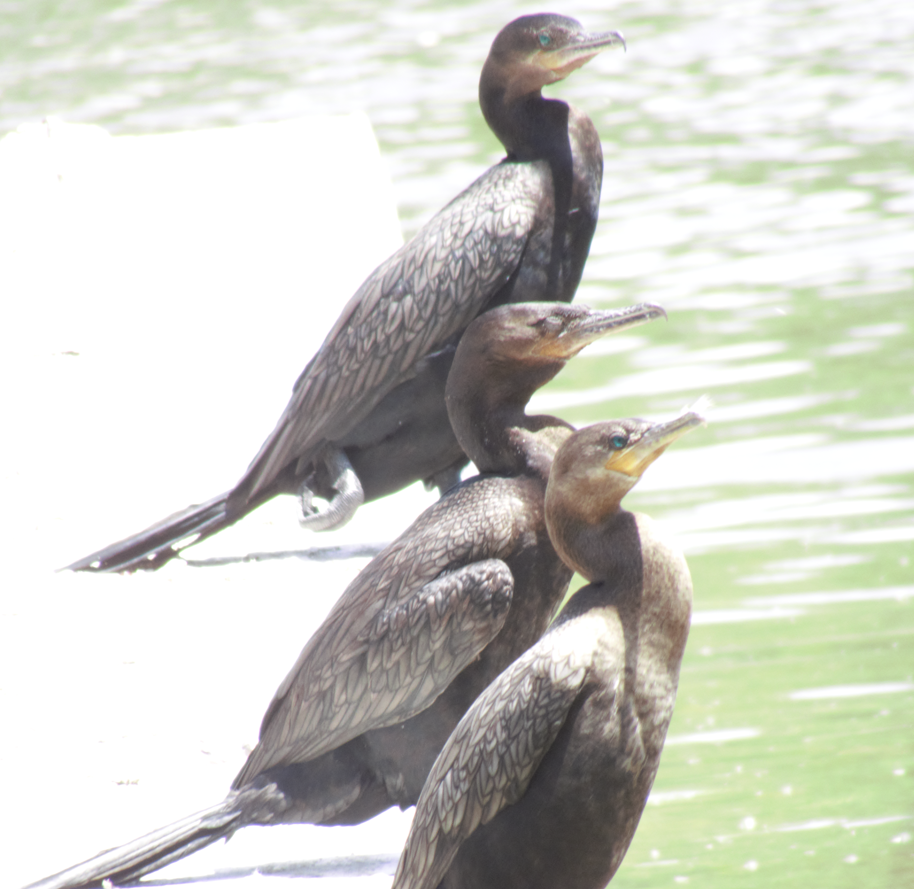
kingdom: Animalia
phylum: Chordata
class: Aves
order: Suliformes
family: Phalacrocoracidae
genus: Phalacrocorax
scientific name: Phalacrocorax brasilianus
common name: Neotropic cormorant
